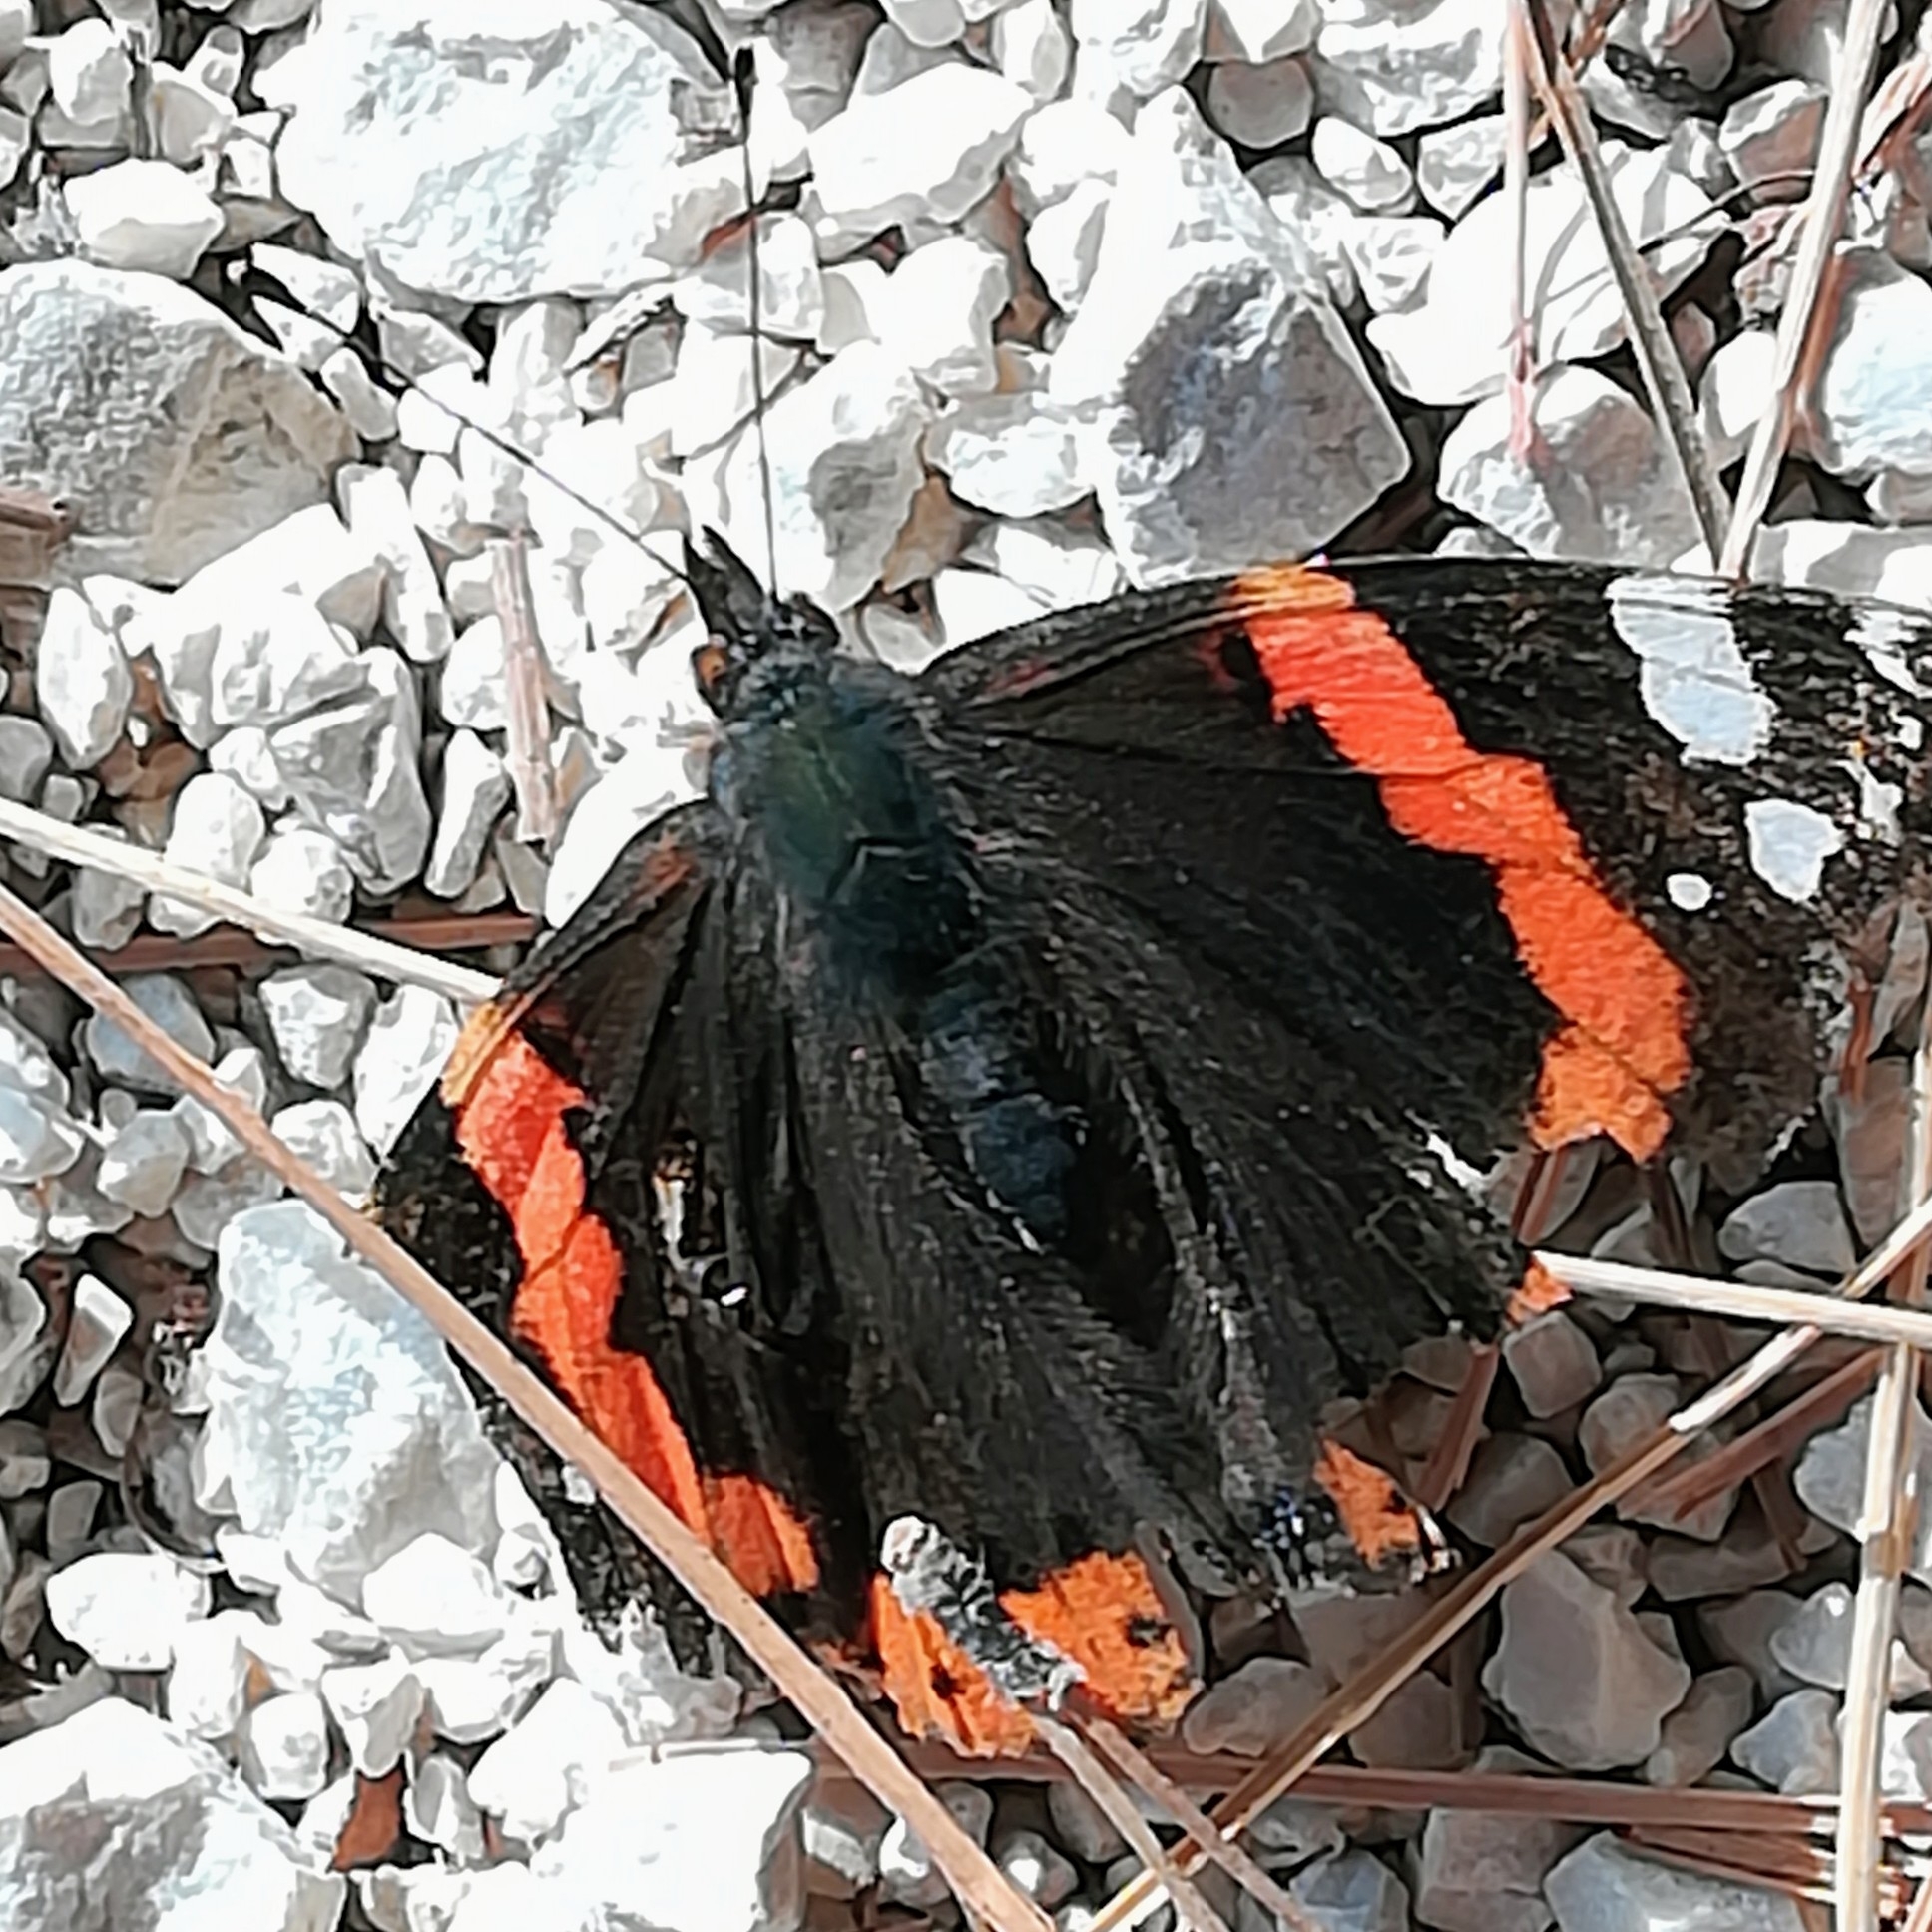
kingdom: Animalia
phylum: Arthropoda
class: Insecta
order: Lepidoptera
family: Nymphalidae
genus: Vanessa
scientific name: Vanessa atalanta
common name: Red admiral
